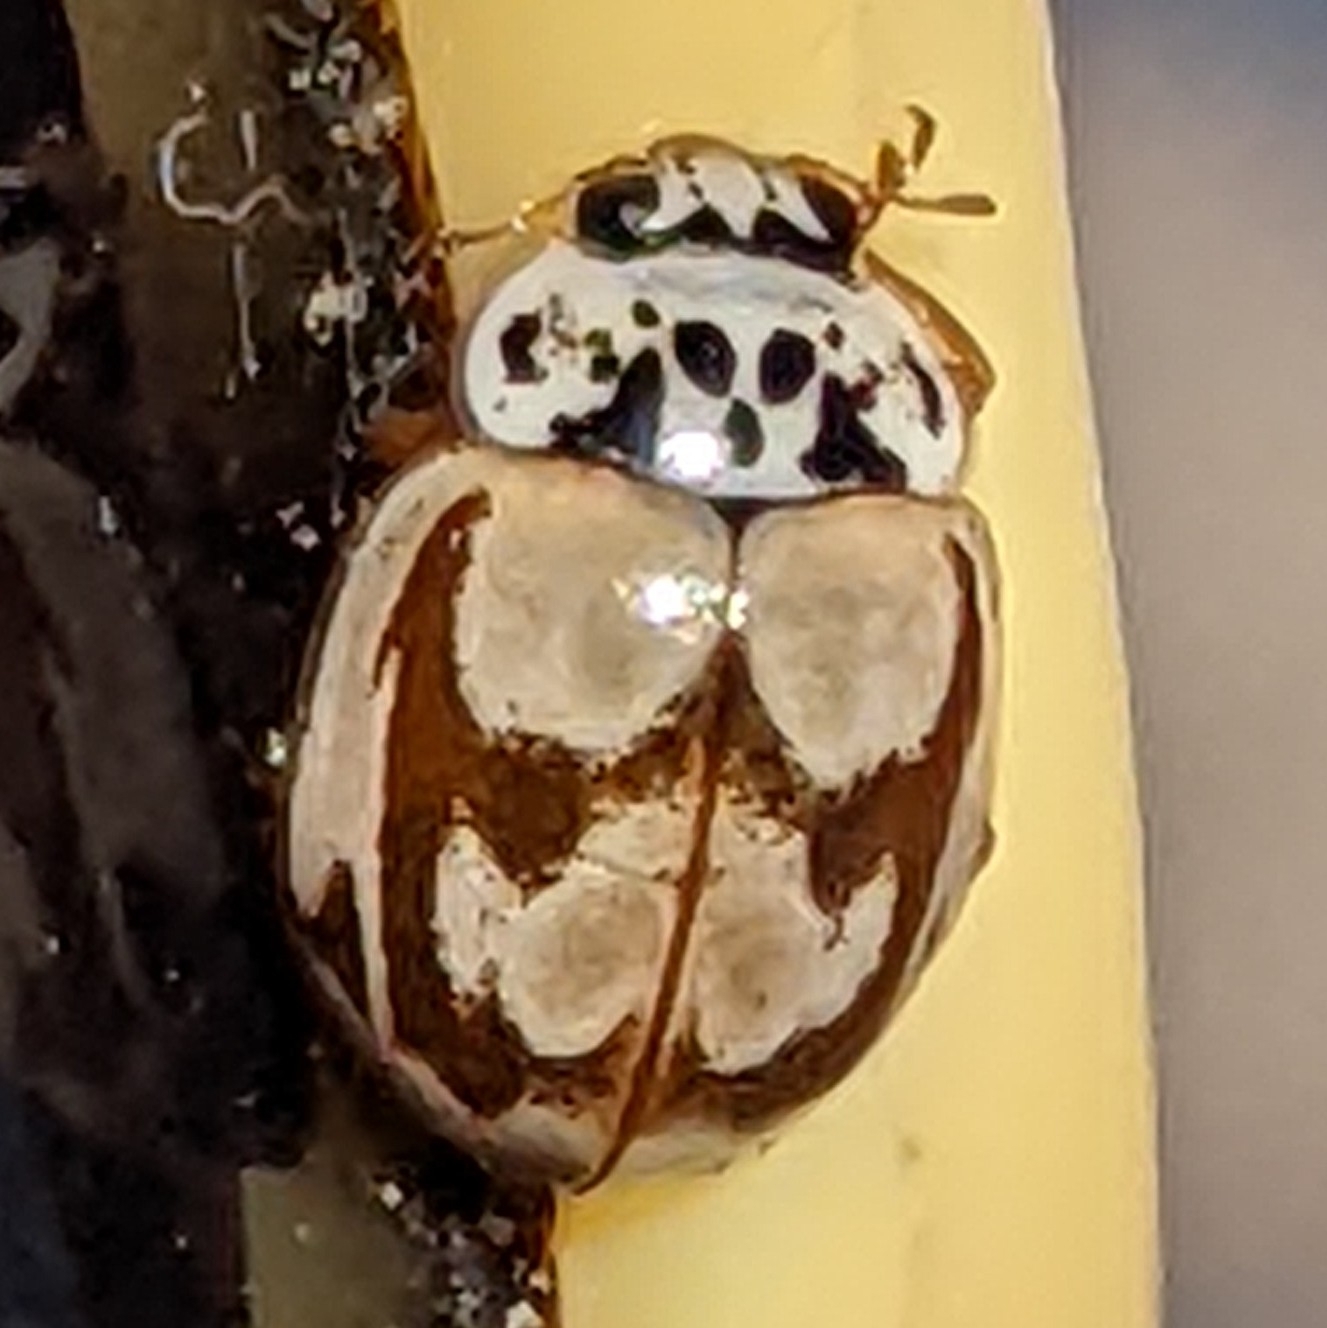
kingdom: Animalia
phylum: Arthropoda
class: Insecta
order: Coleoptera
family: Coccinellidae
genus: Mulsantina
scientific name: Mulsantina picta
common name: Painted ladybird
